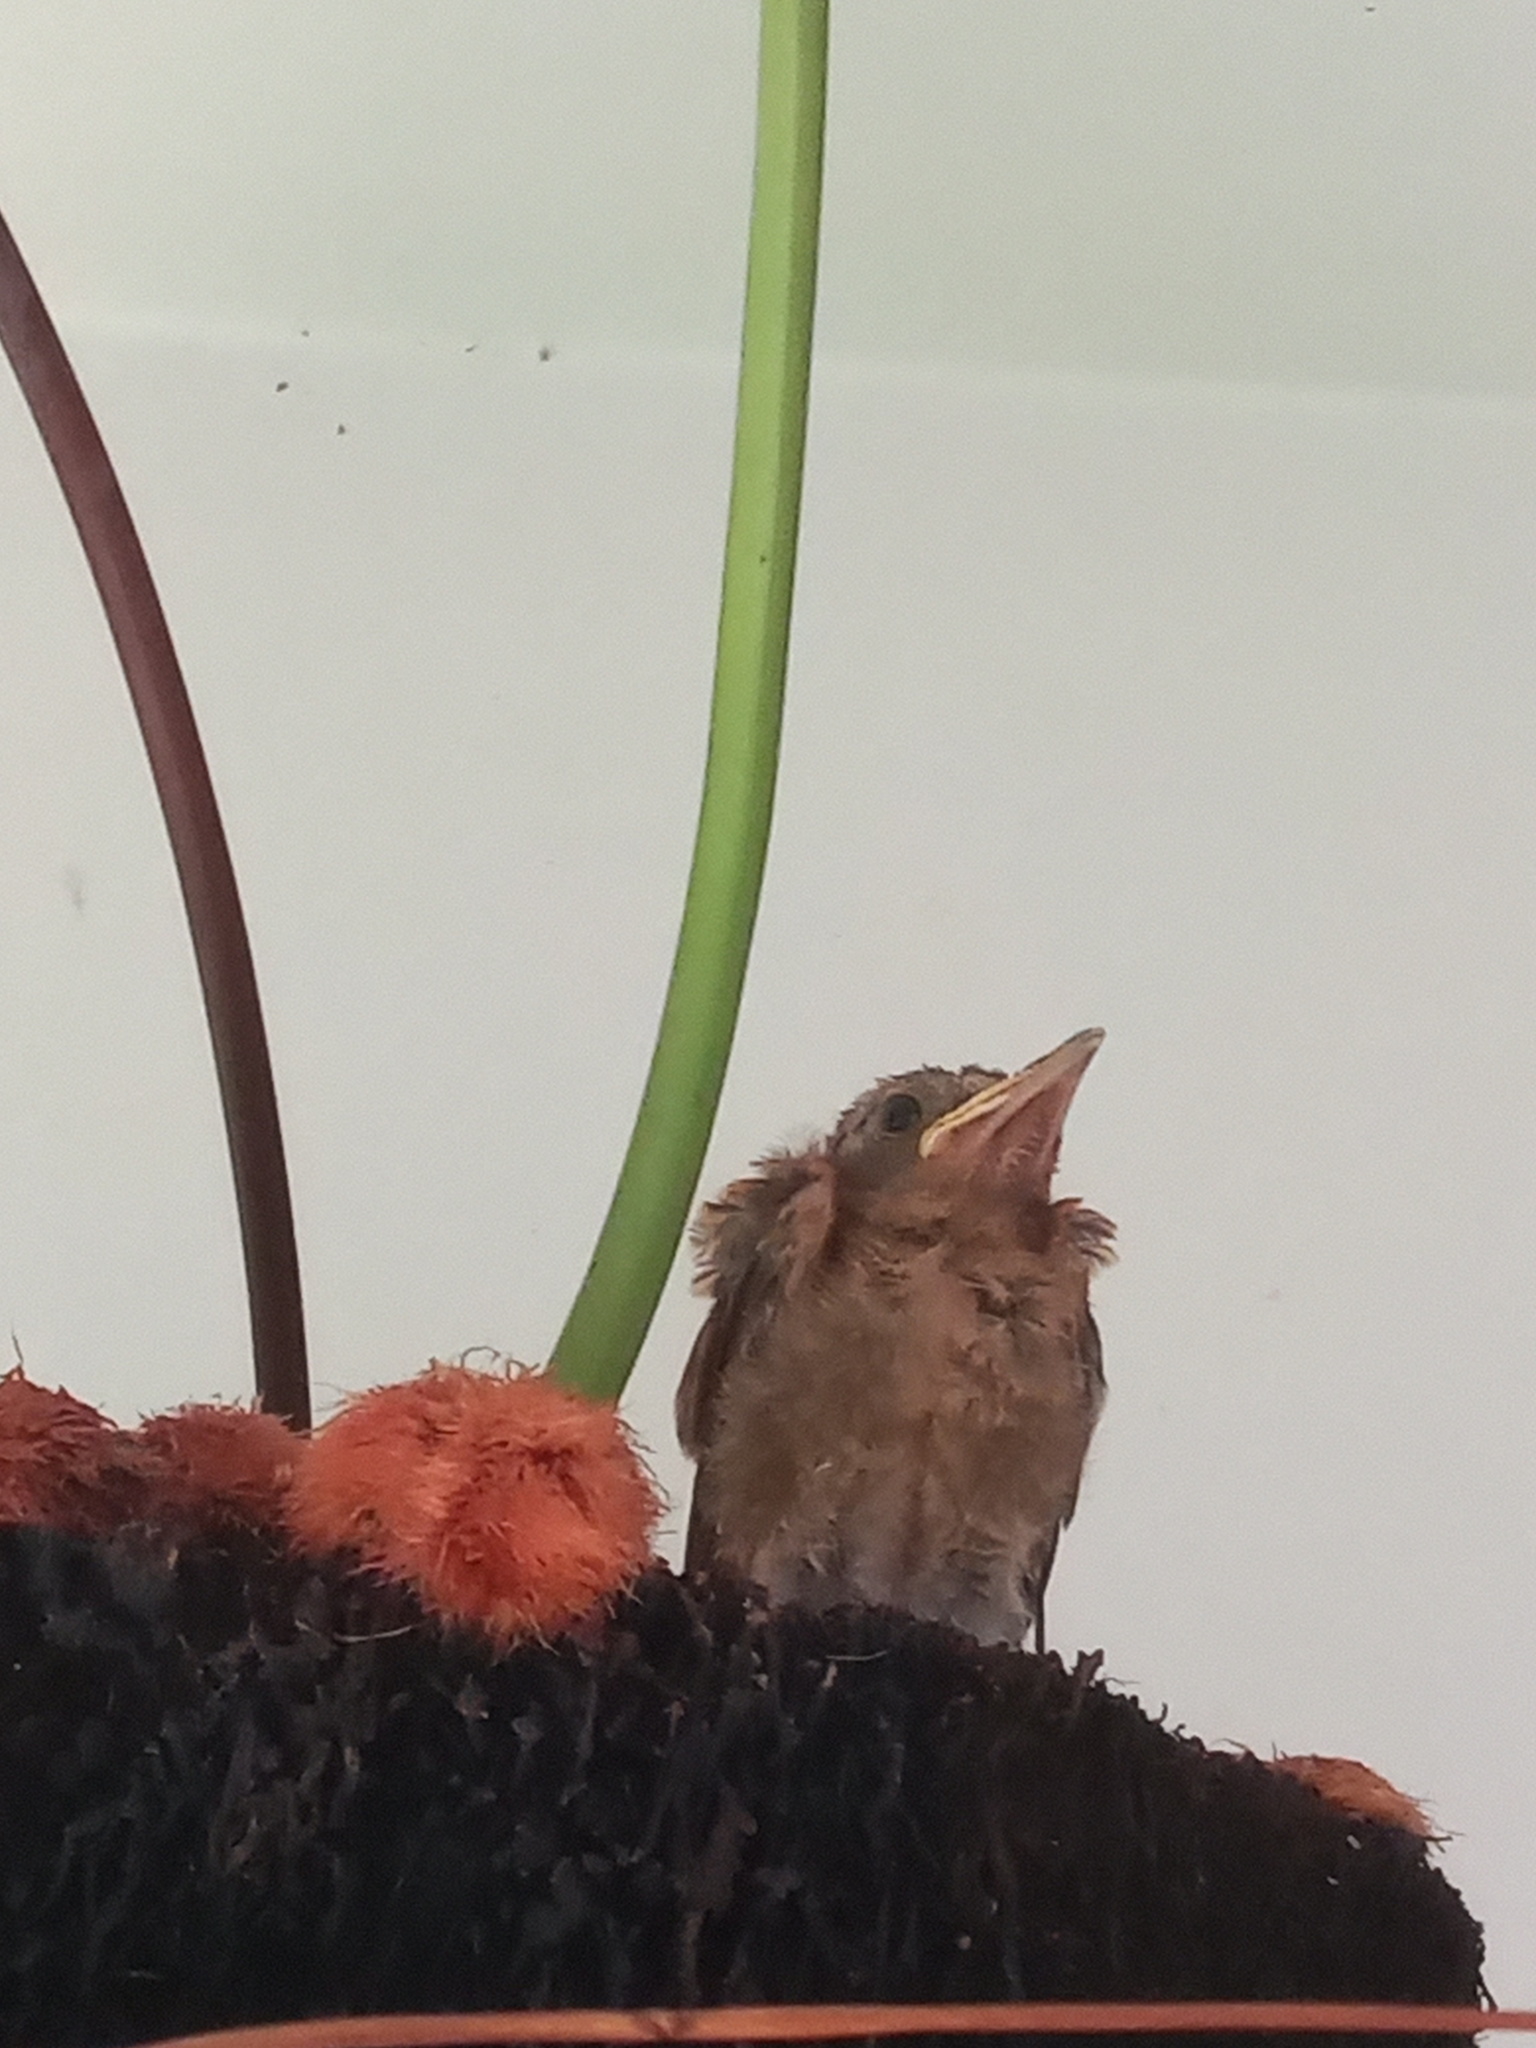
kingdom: Animalia
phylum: Chordata
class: Aves
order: Passeriformes
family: Turdidae
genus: Turdus
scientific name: Turdus leucomelas
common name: Pale-breasted thrush
